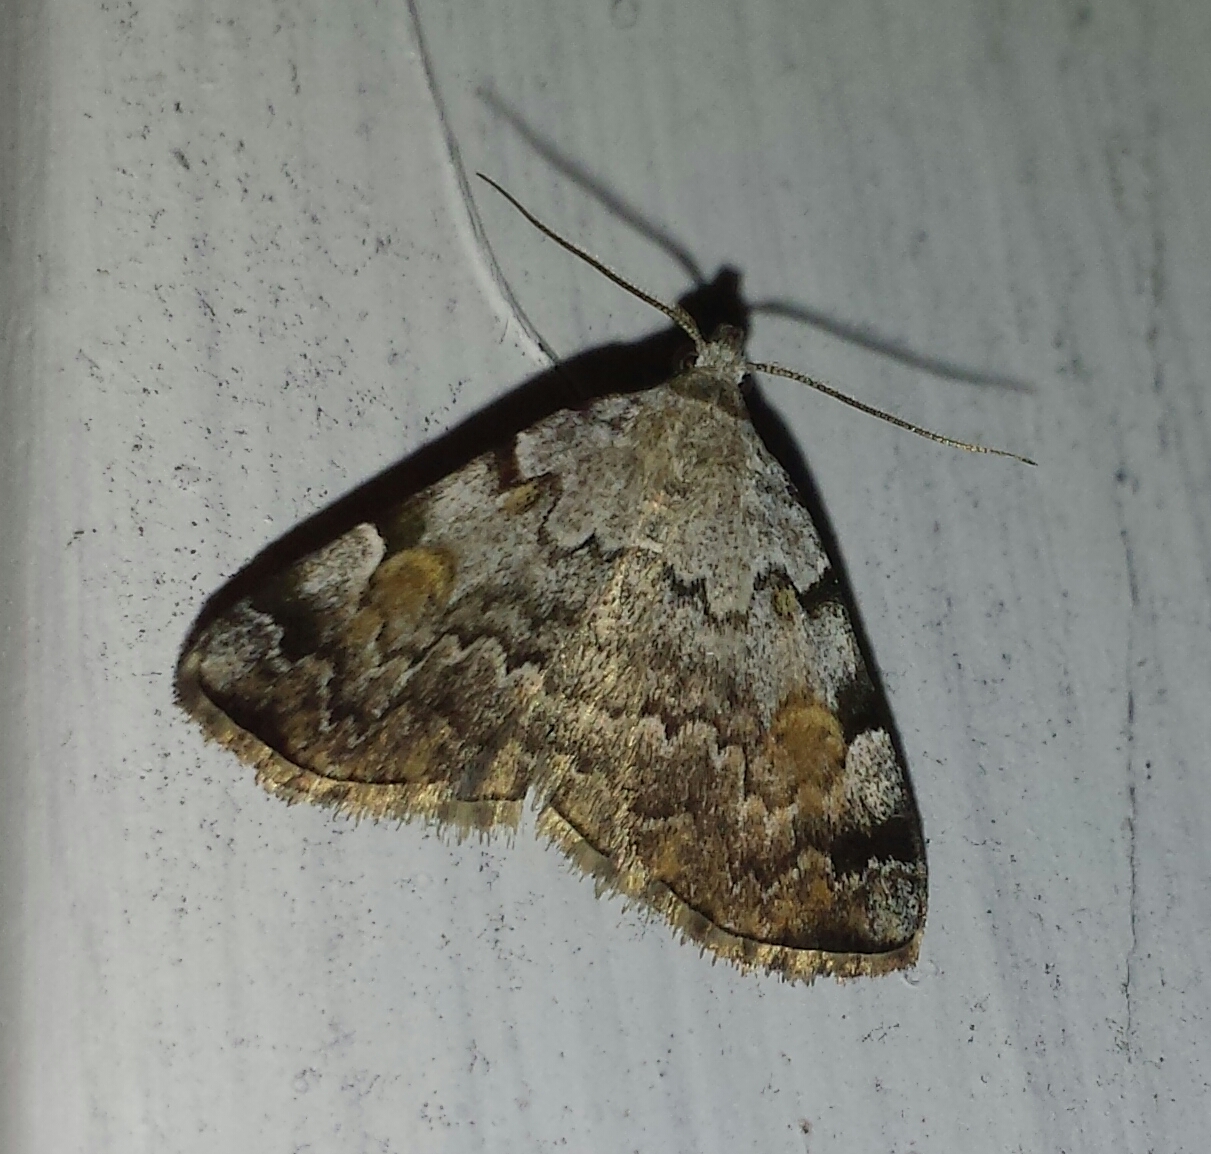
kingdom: Animalia
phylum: Arthropoda
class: Insecta
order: Lepidoptera
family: Erebidae
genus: Idia
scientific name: Idia americalis
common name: American idia moth
